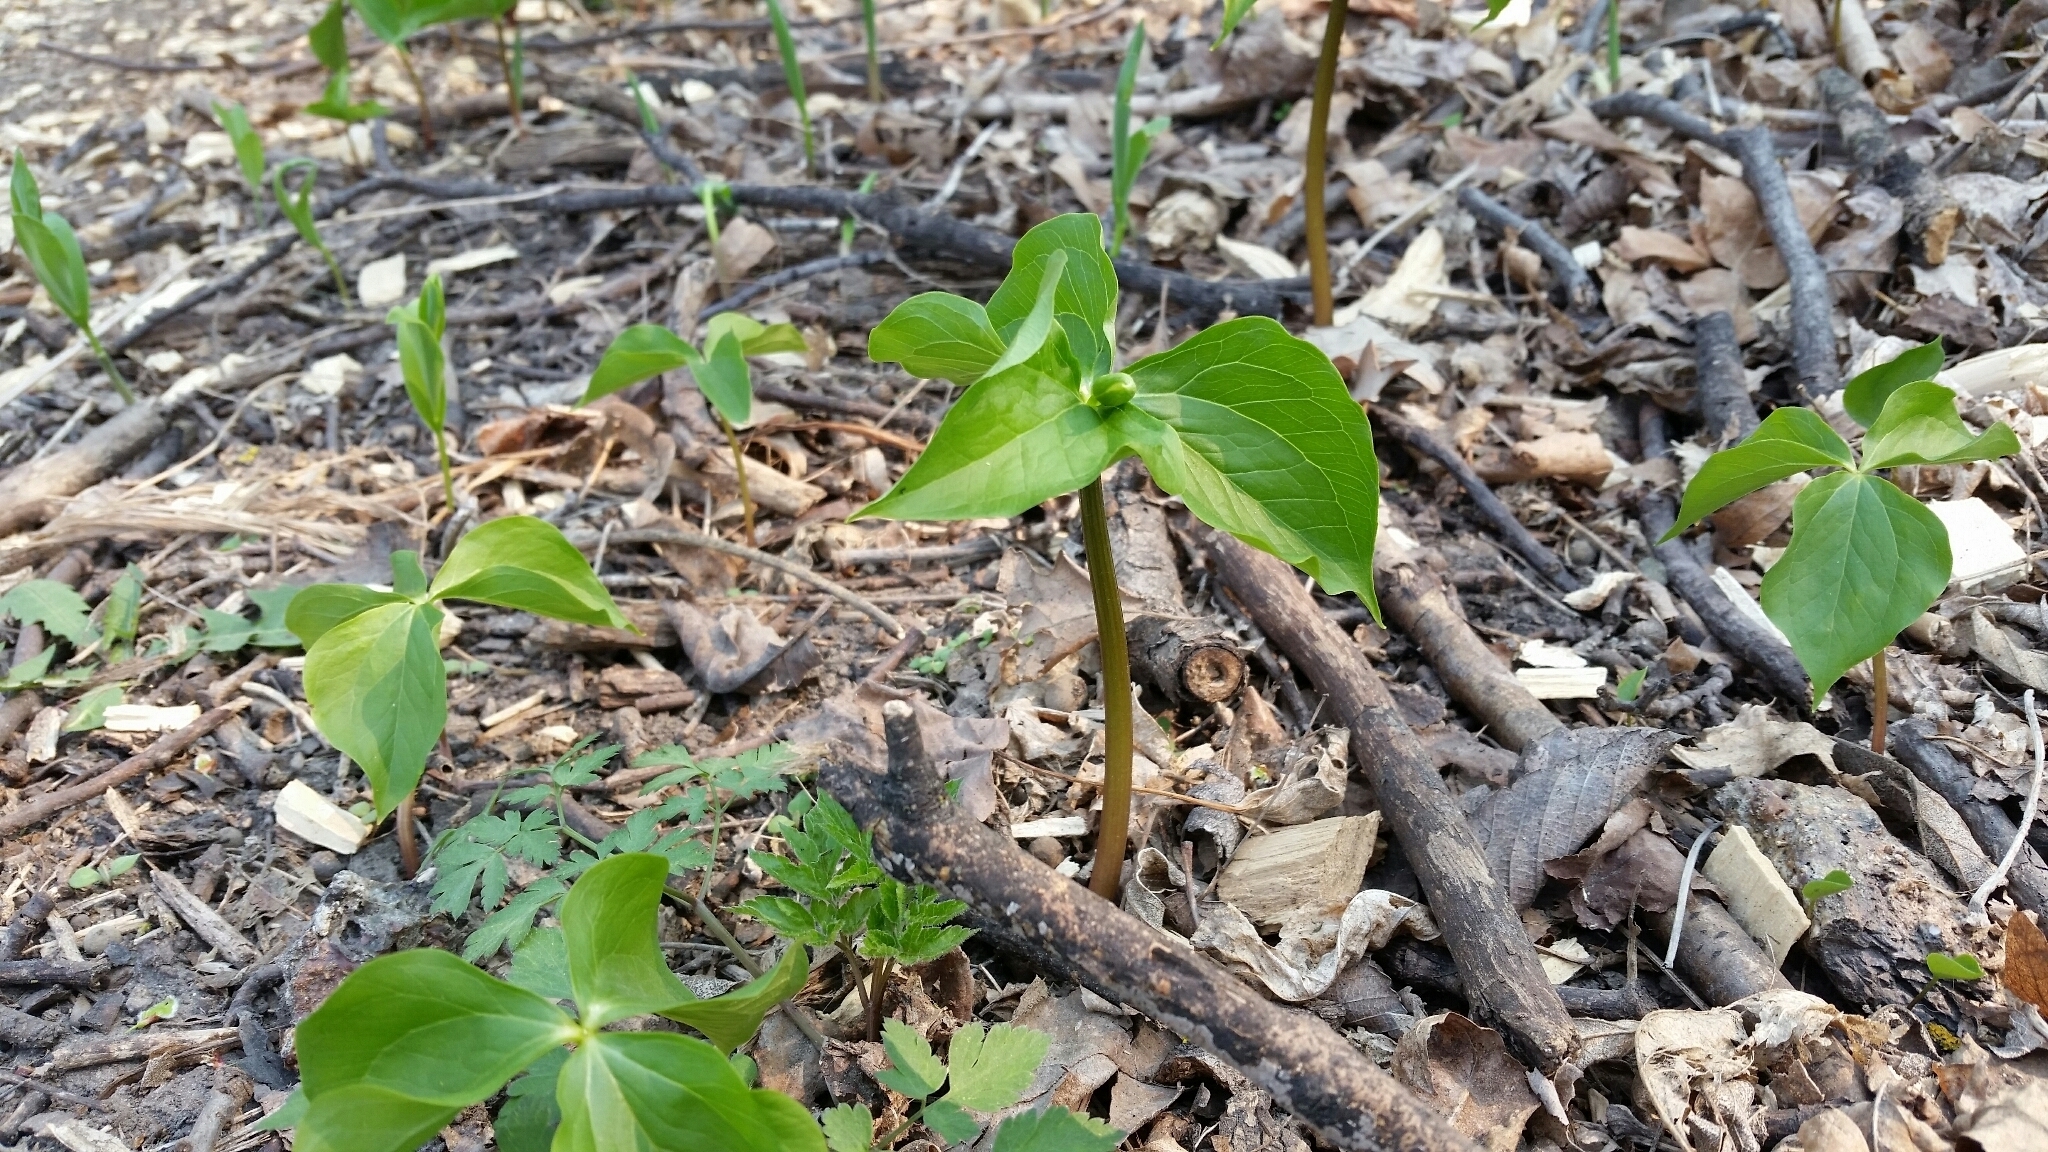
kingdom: Plantae
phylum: Tracheophyta
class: Liliopsida
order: Liliales
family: Melanthiaceae
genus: Trillium
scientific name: Trillium cernuum
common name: Nodding trillium
